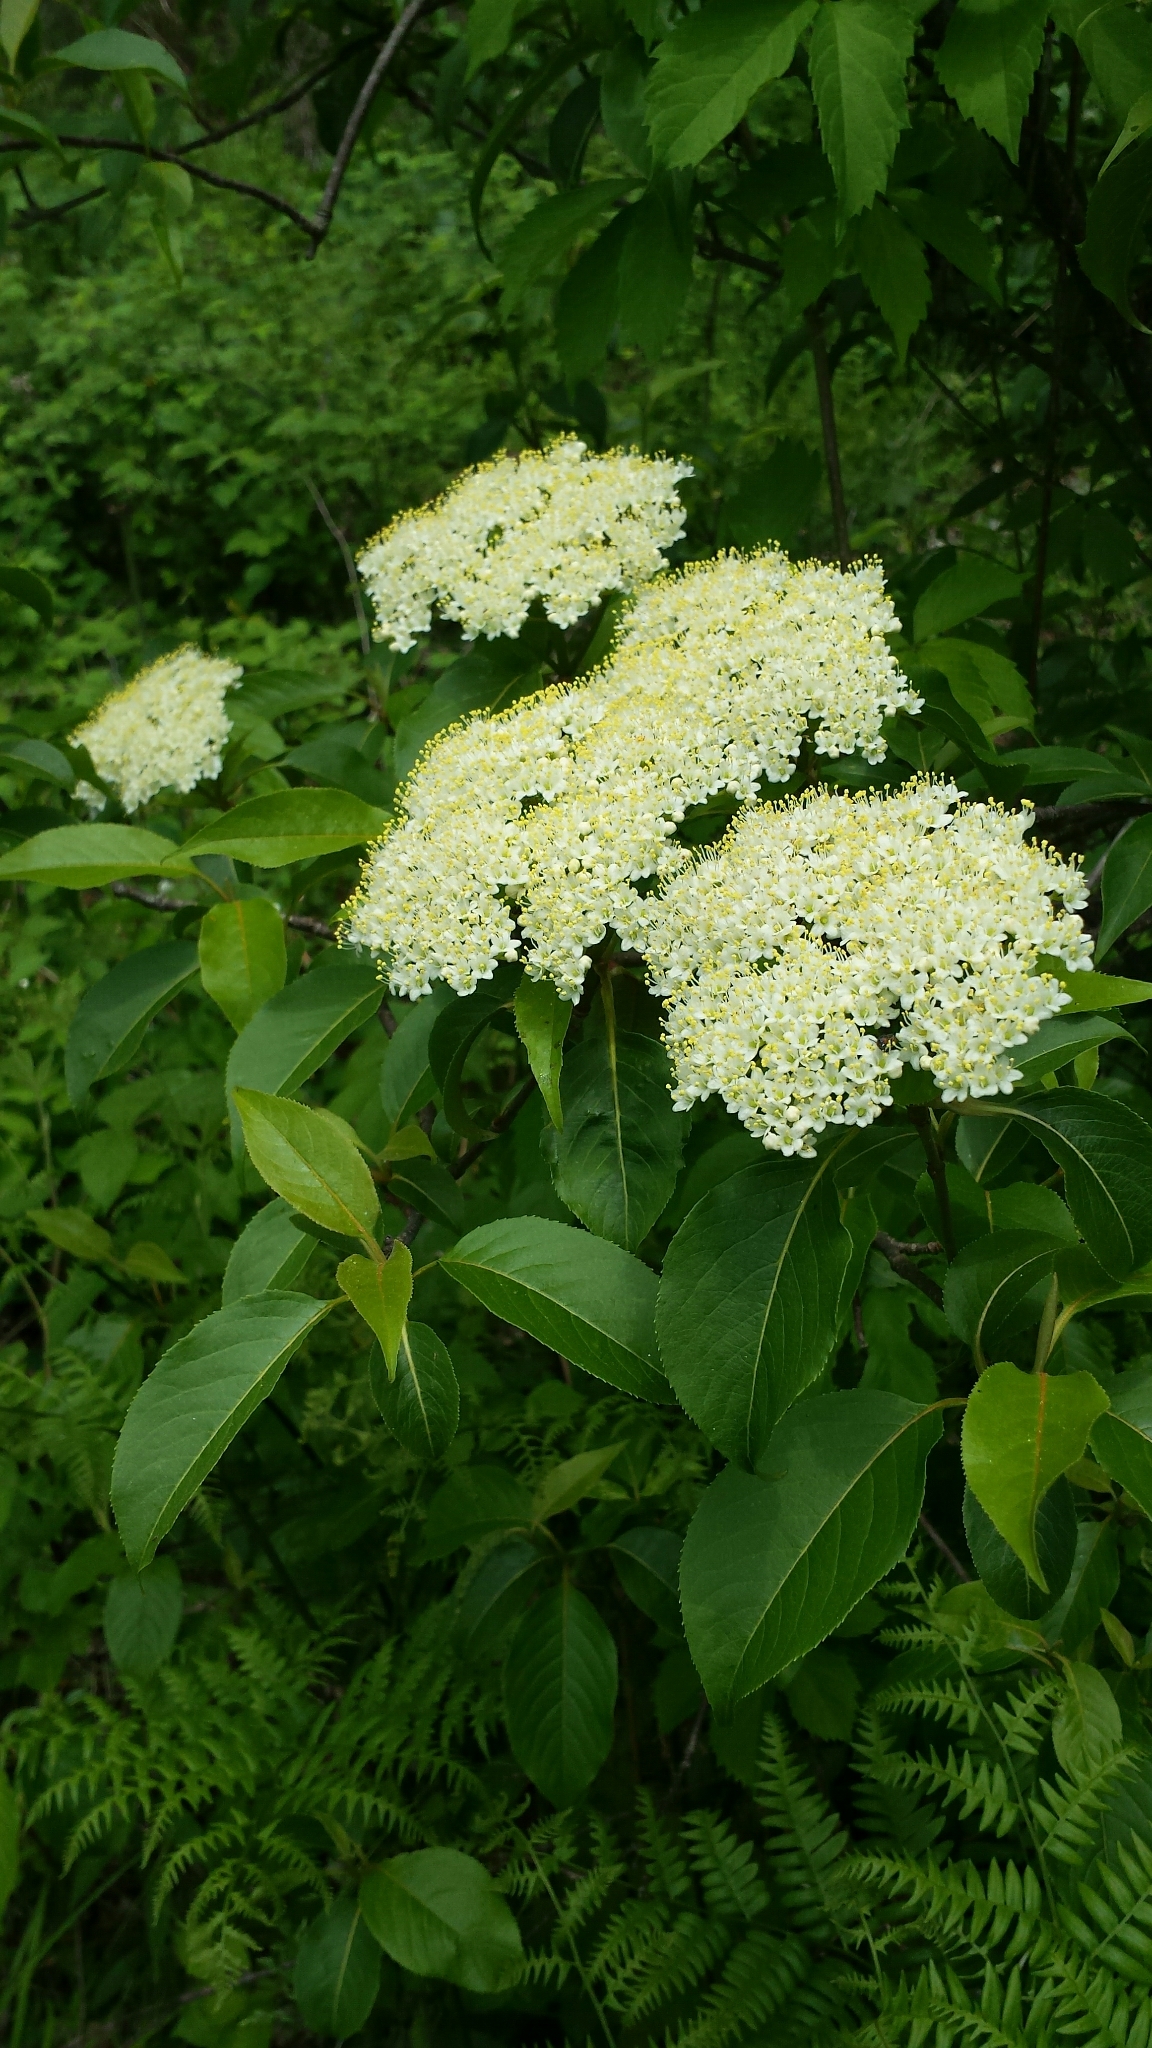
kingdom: Plantae
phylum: Tracheophyta
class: Magnoliopsida
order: Dipsacales
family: Viburnaceae
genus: Viburnum
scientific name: Viburnum lentago
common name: Black haw
